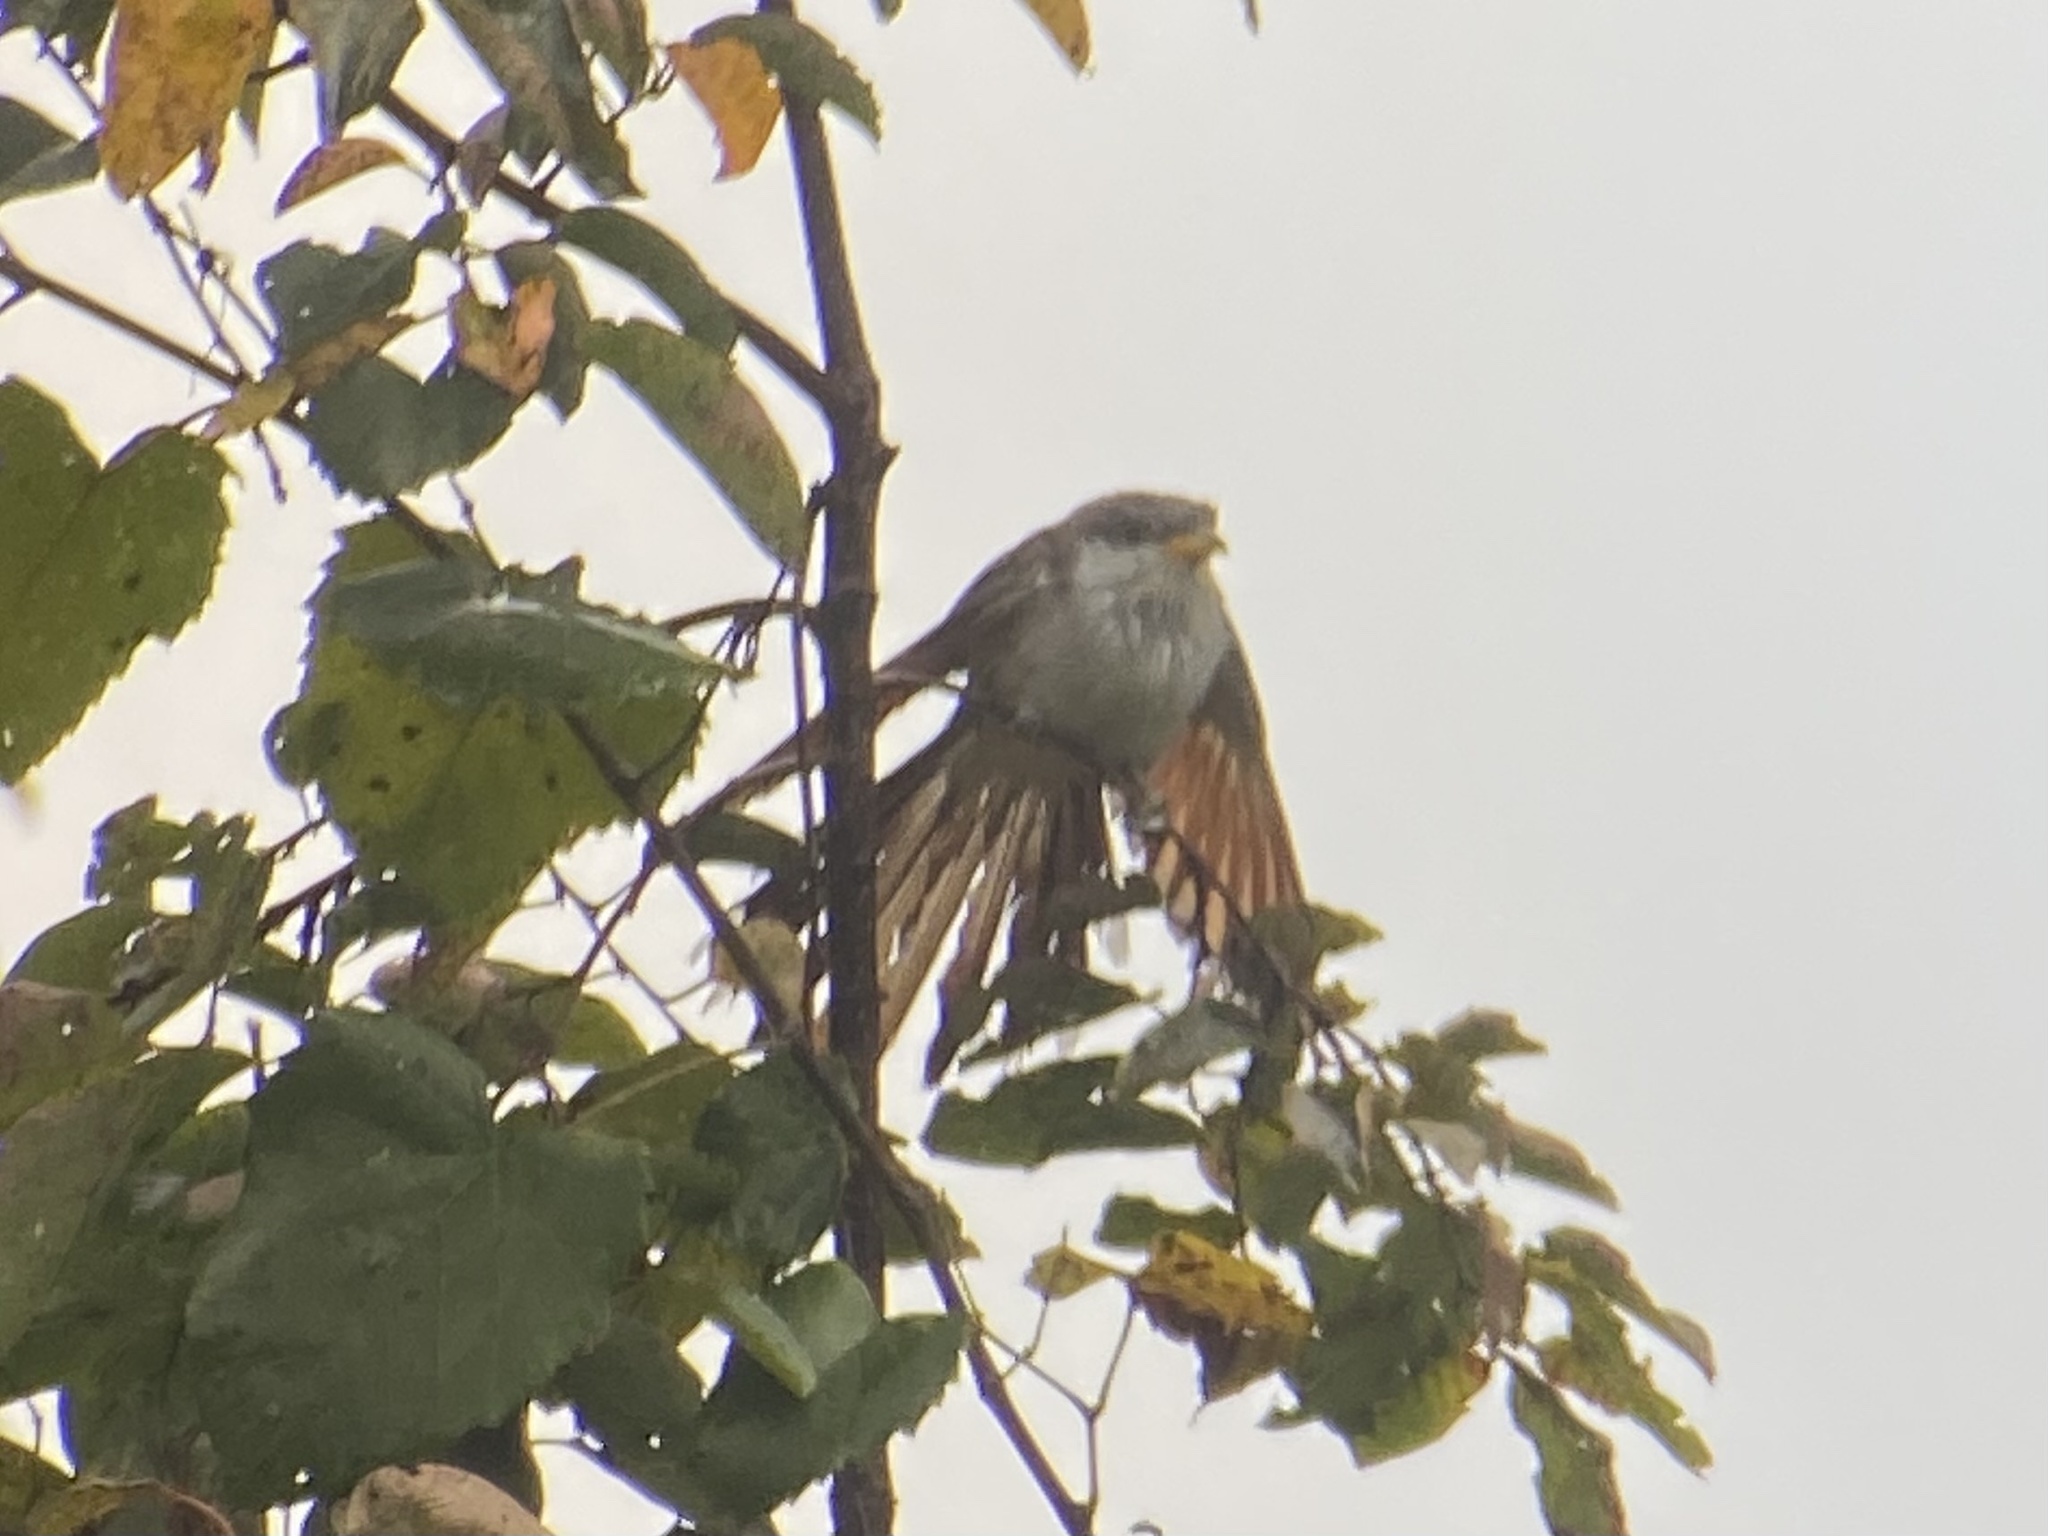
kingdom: Animalia
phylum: Chordata
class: Aves
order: Cuculiformes
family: Cuculidae
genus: Coccyzus
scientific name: Coccyzus americanus
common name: Yellow-billed cuckoo
